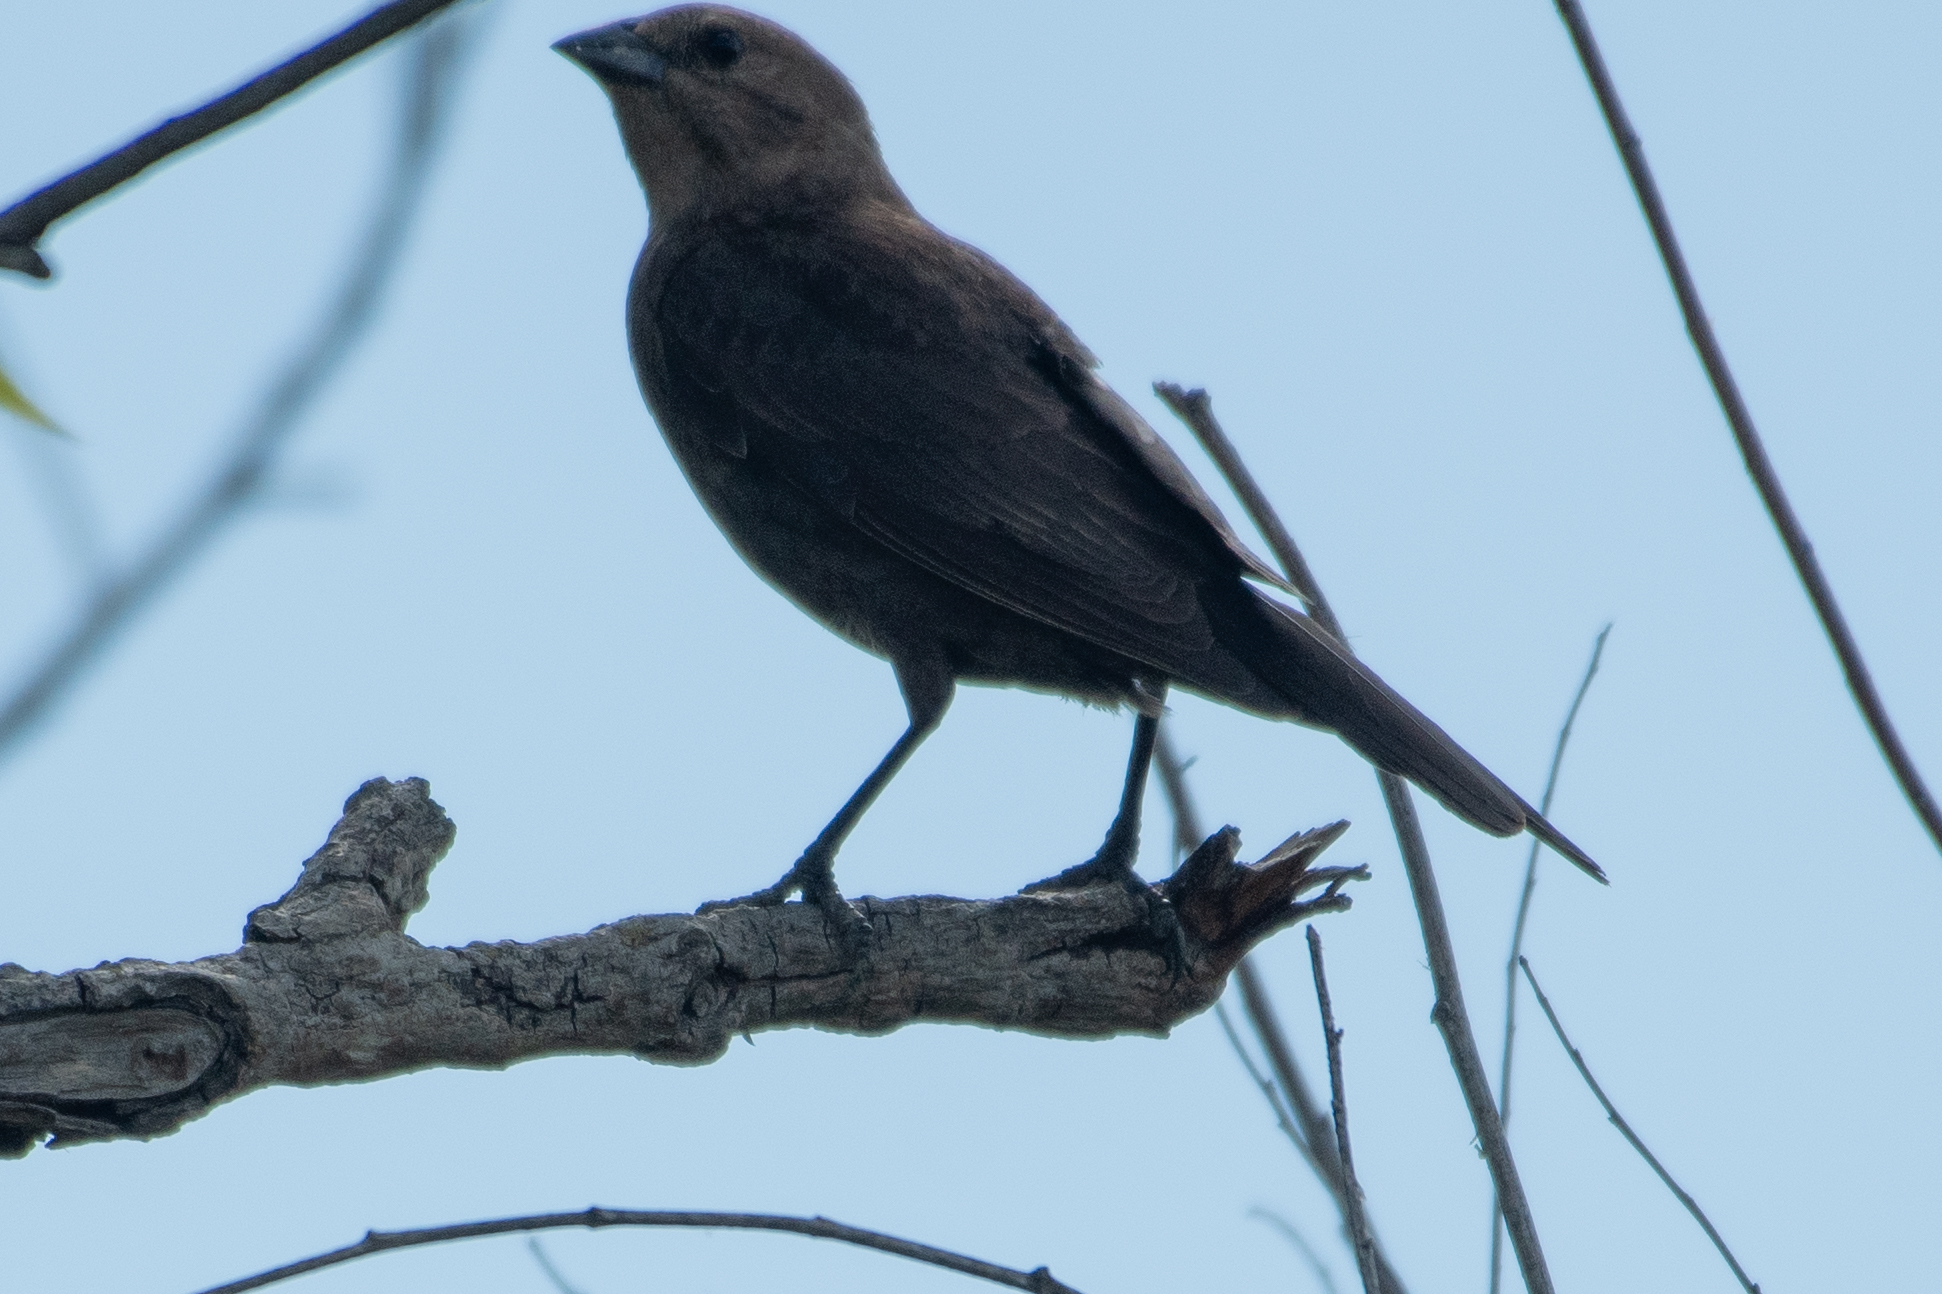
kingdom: Animalia
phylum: Chordata
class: Aves
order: Passeriformes
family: Icteridae
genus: Molothrus
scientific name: Molothrus ater
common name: Brown-headed cowbird
